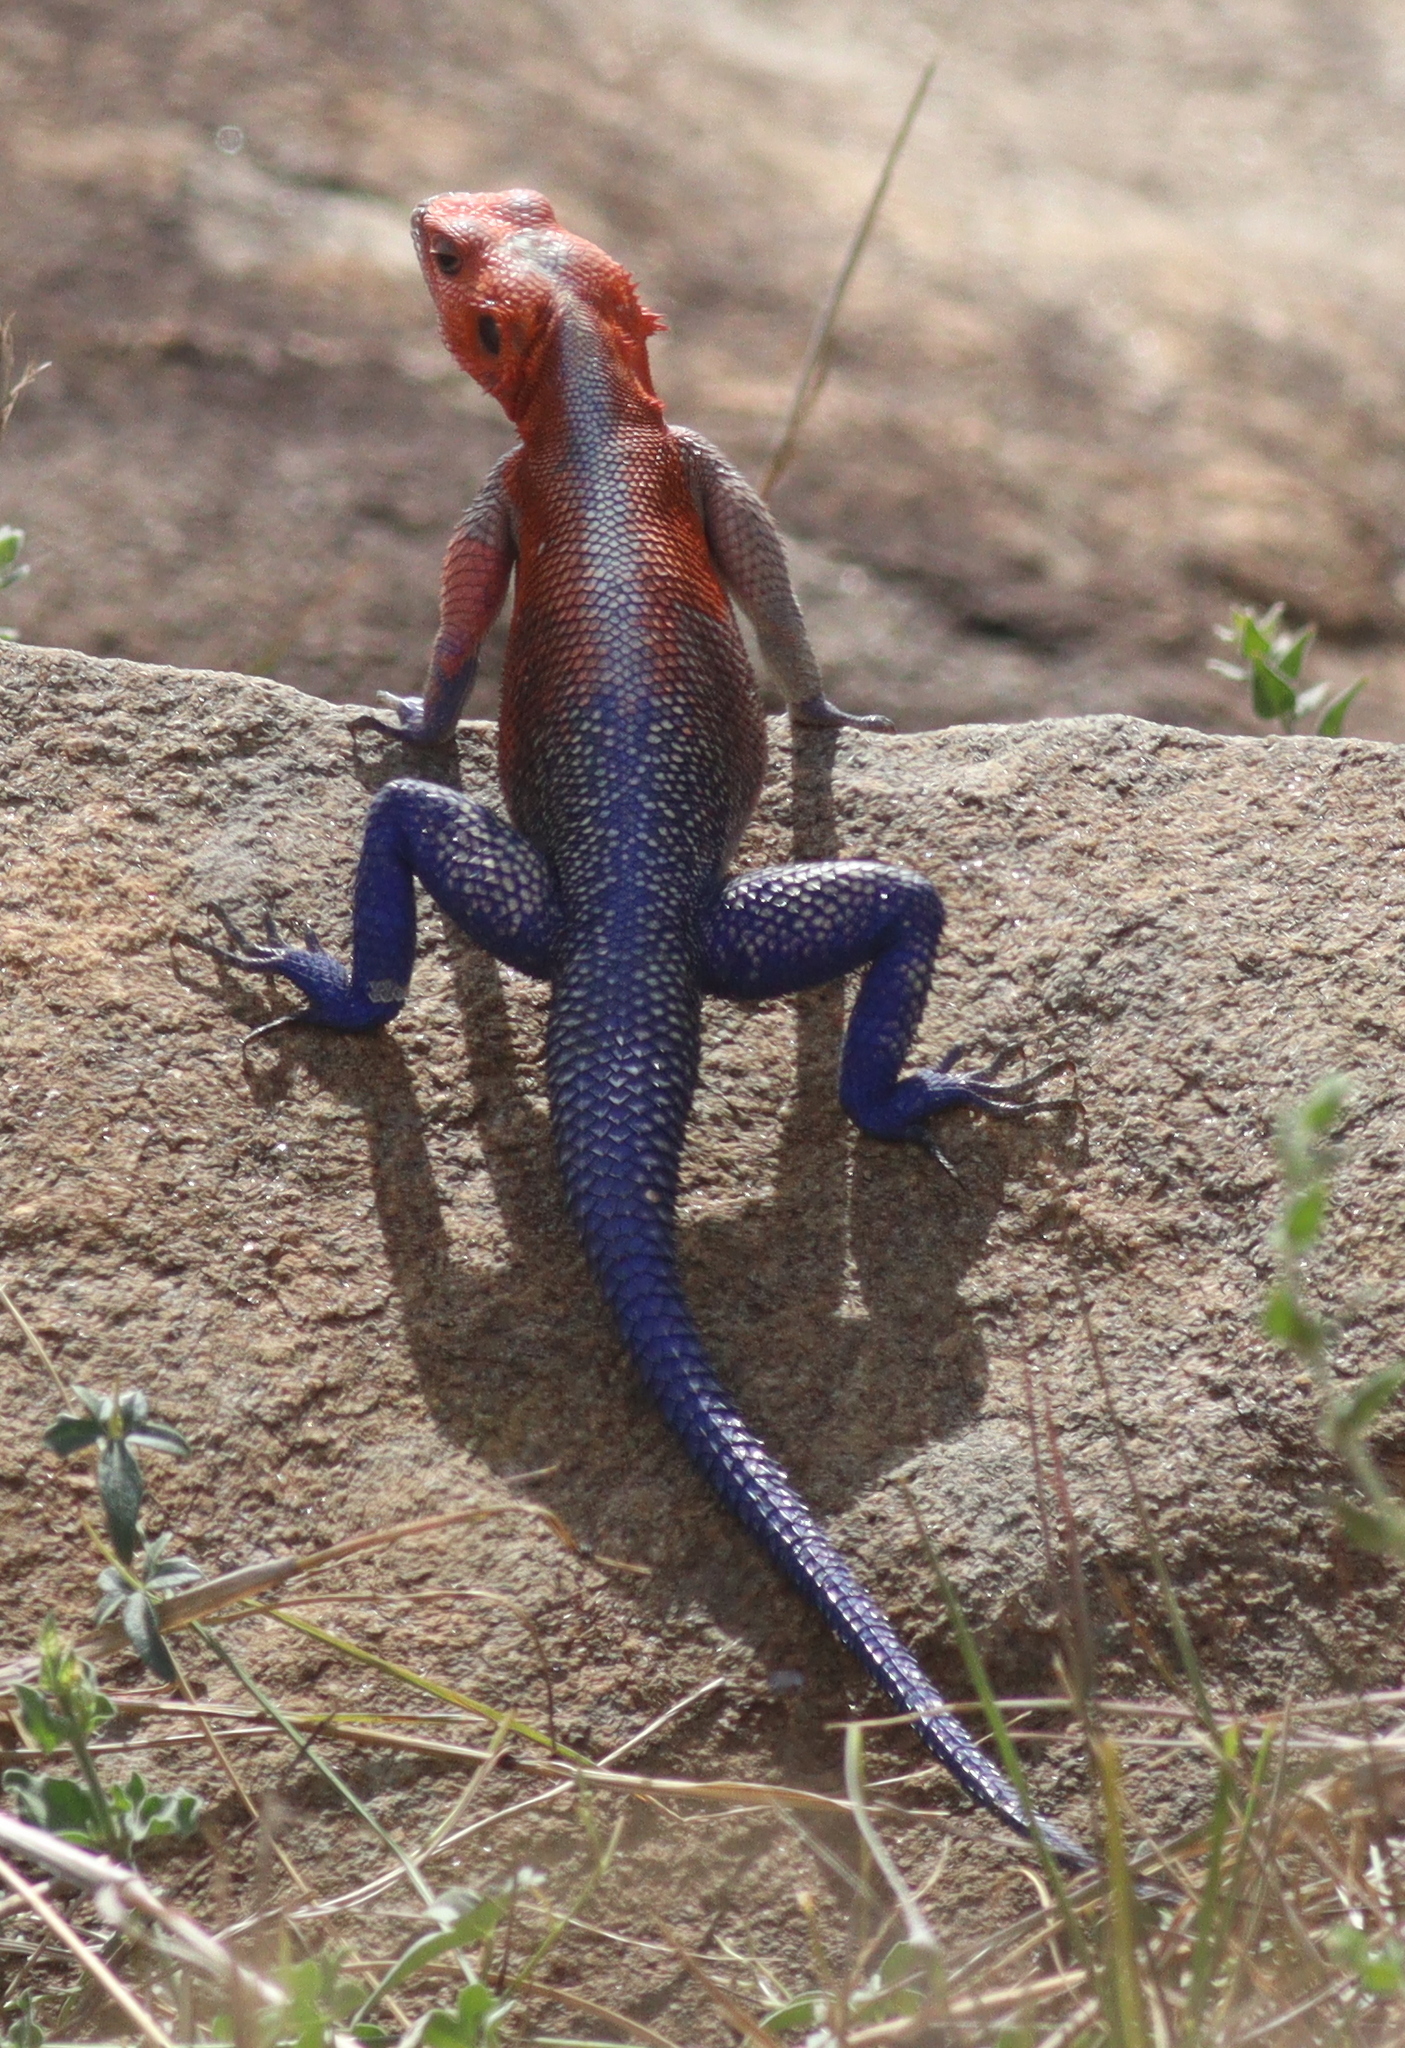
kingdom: Animalia
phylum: Chordata
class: Squamata
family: Agamidae
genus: Agama
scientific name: Agama mwanzae
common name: Mwanza flat-headed agama
